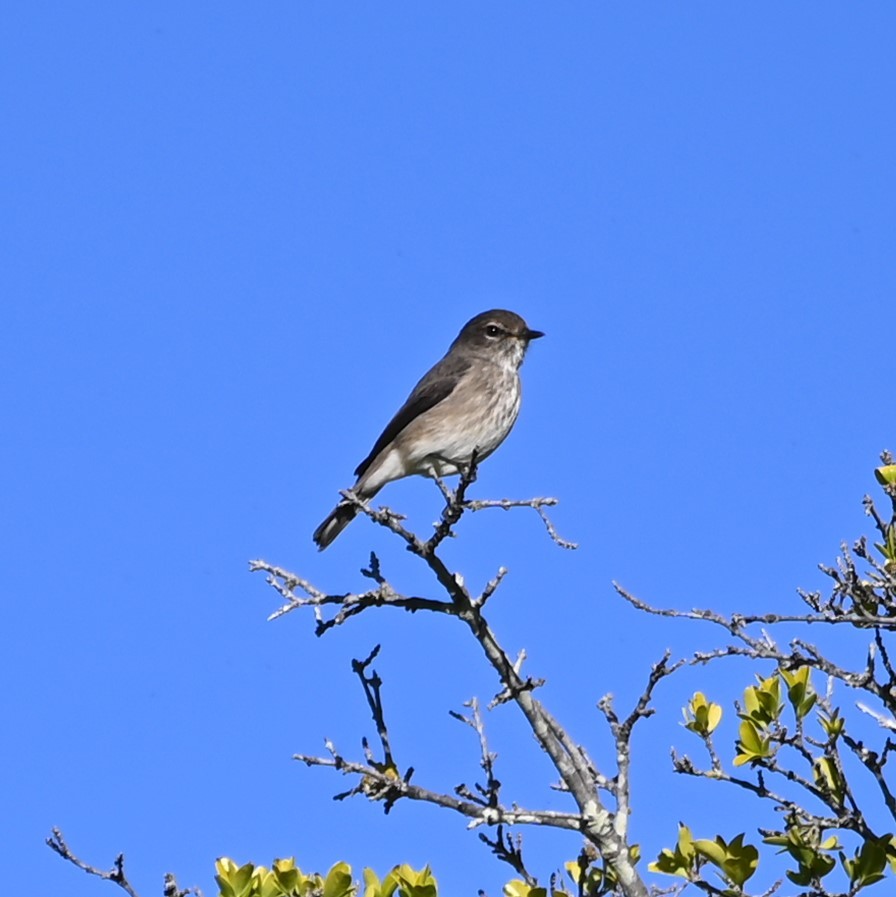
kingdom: Animalia
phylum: Chordata
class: Aves
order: Passeriformes
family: Muscicapidae
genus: Muscicapa
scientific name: Muscicapa adusta
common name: African dusky flycatcher
